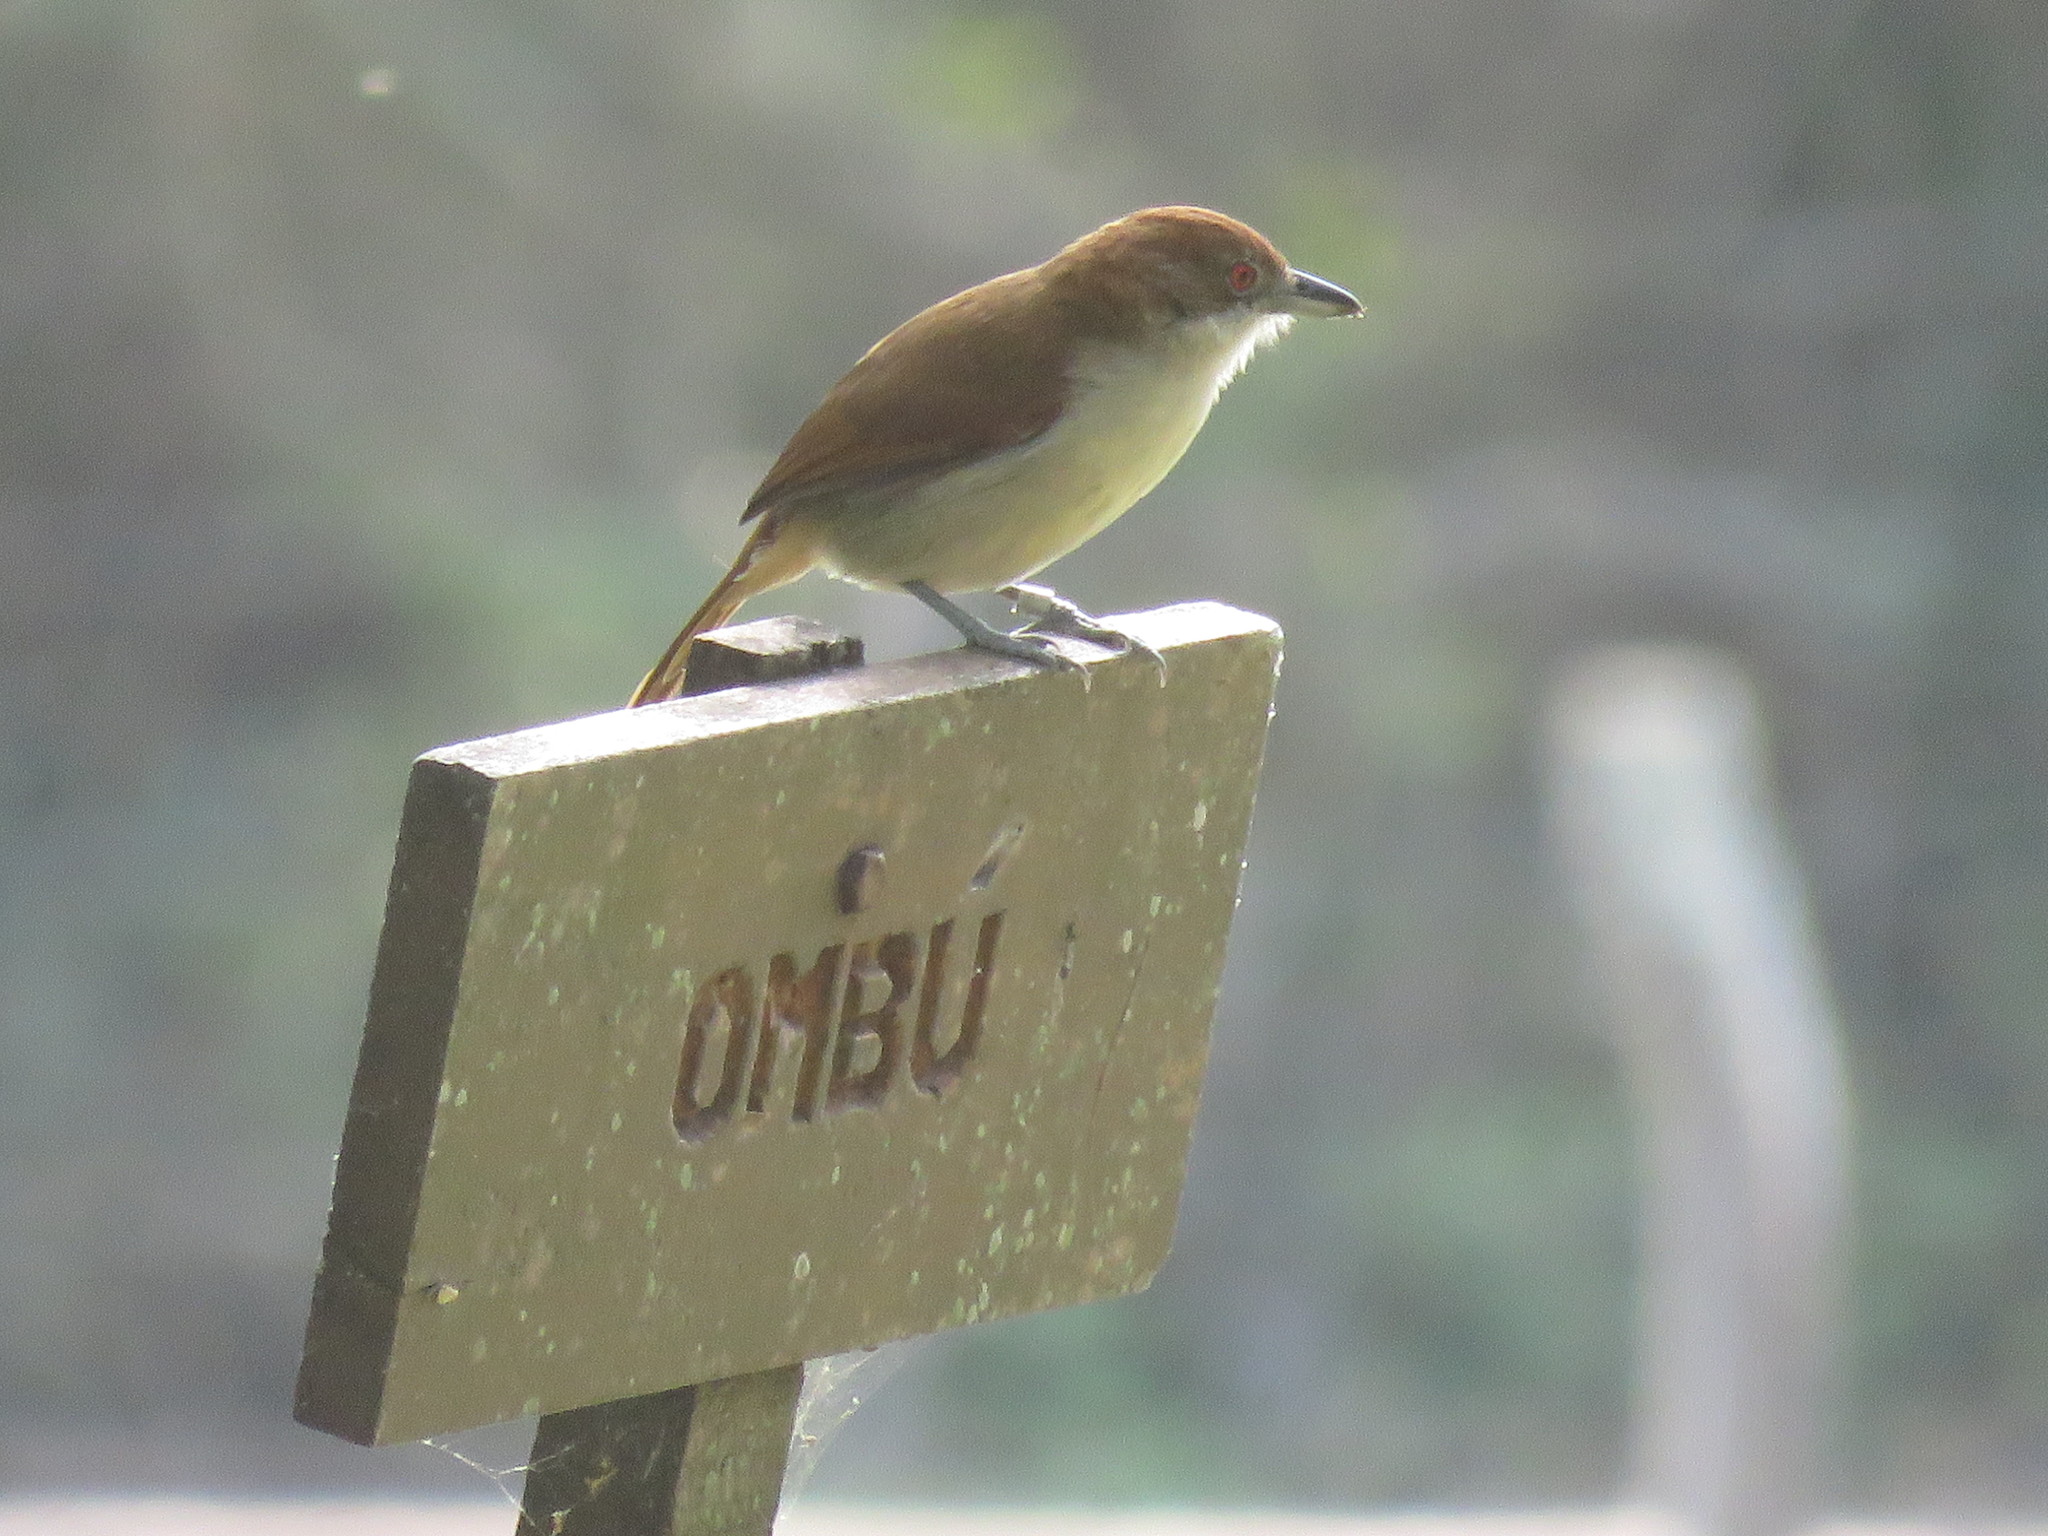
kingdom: Animalia
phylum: Chordata
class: Aves
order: Passeriformes
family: Thamnophilidae
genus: Taraba
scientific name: Taraba major
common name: Great antshrike
